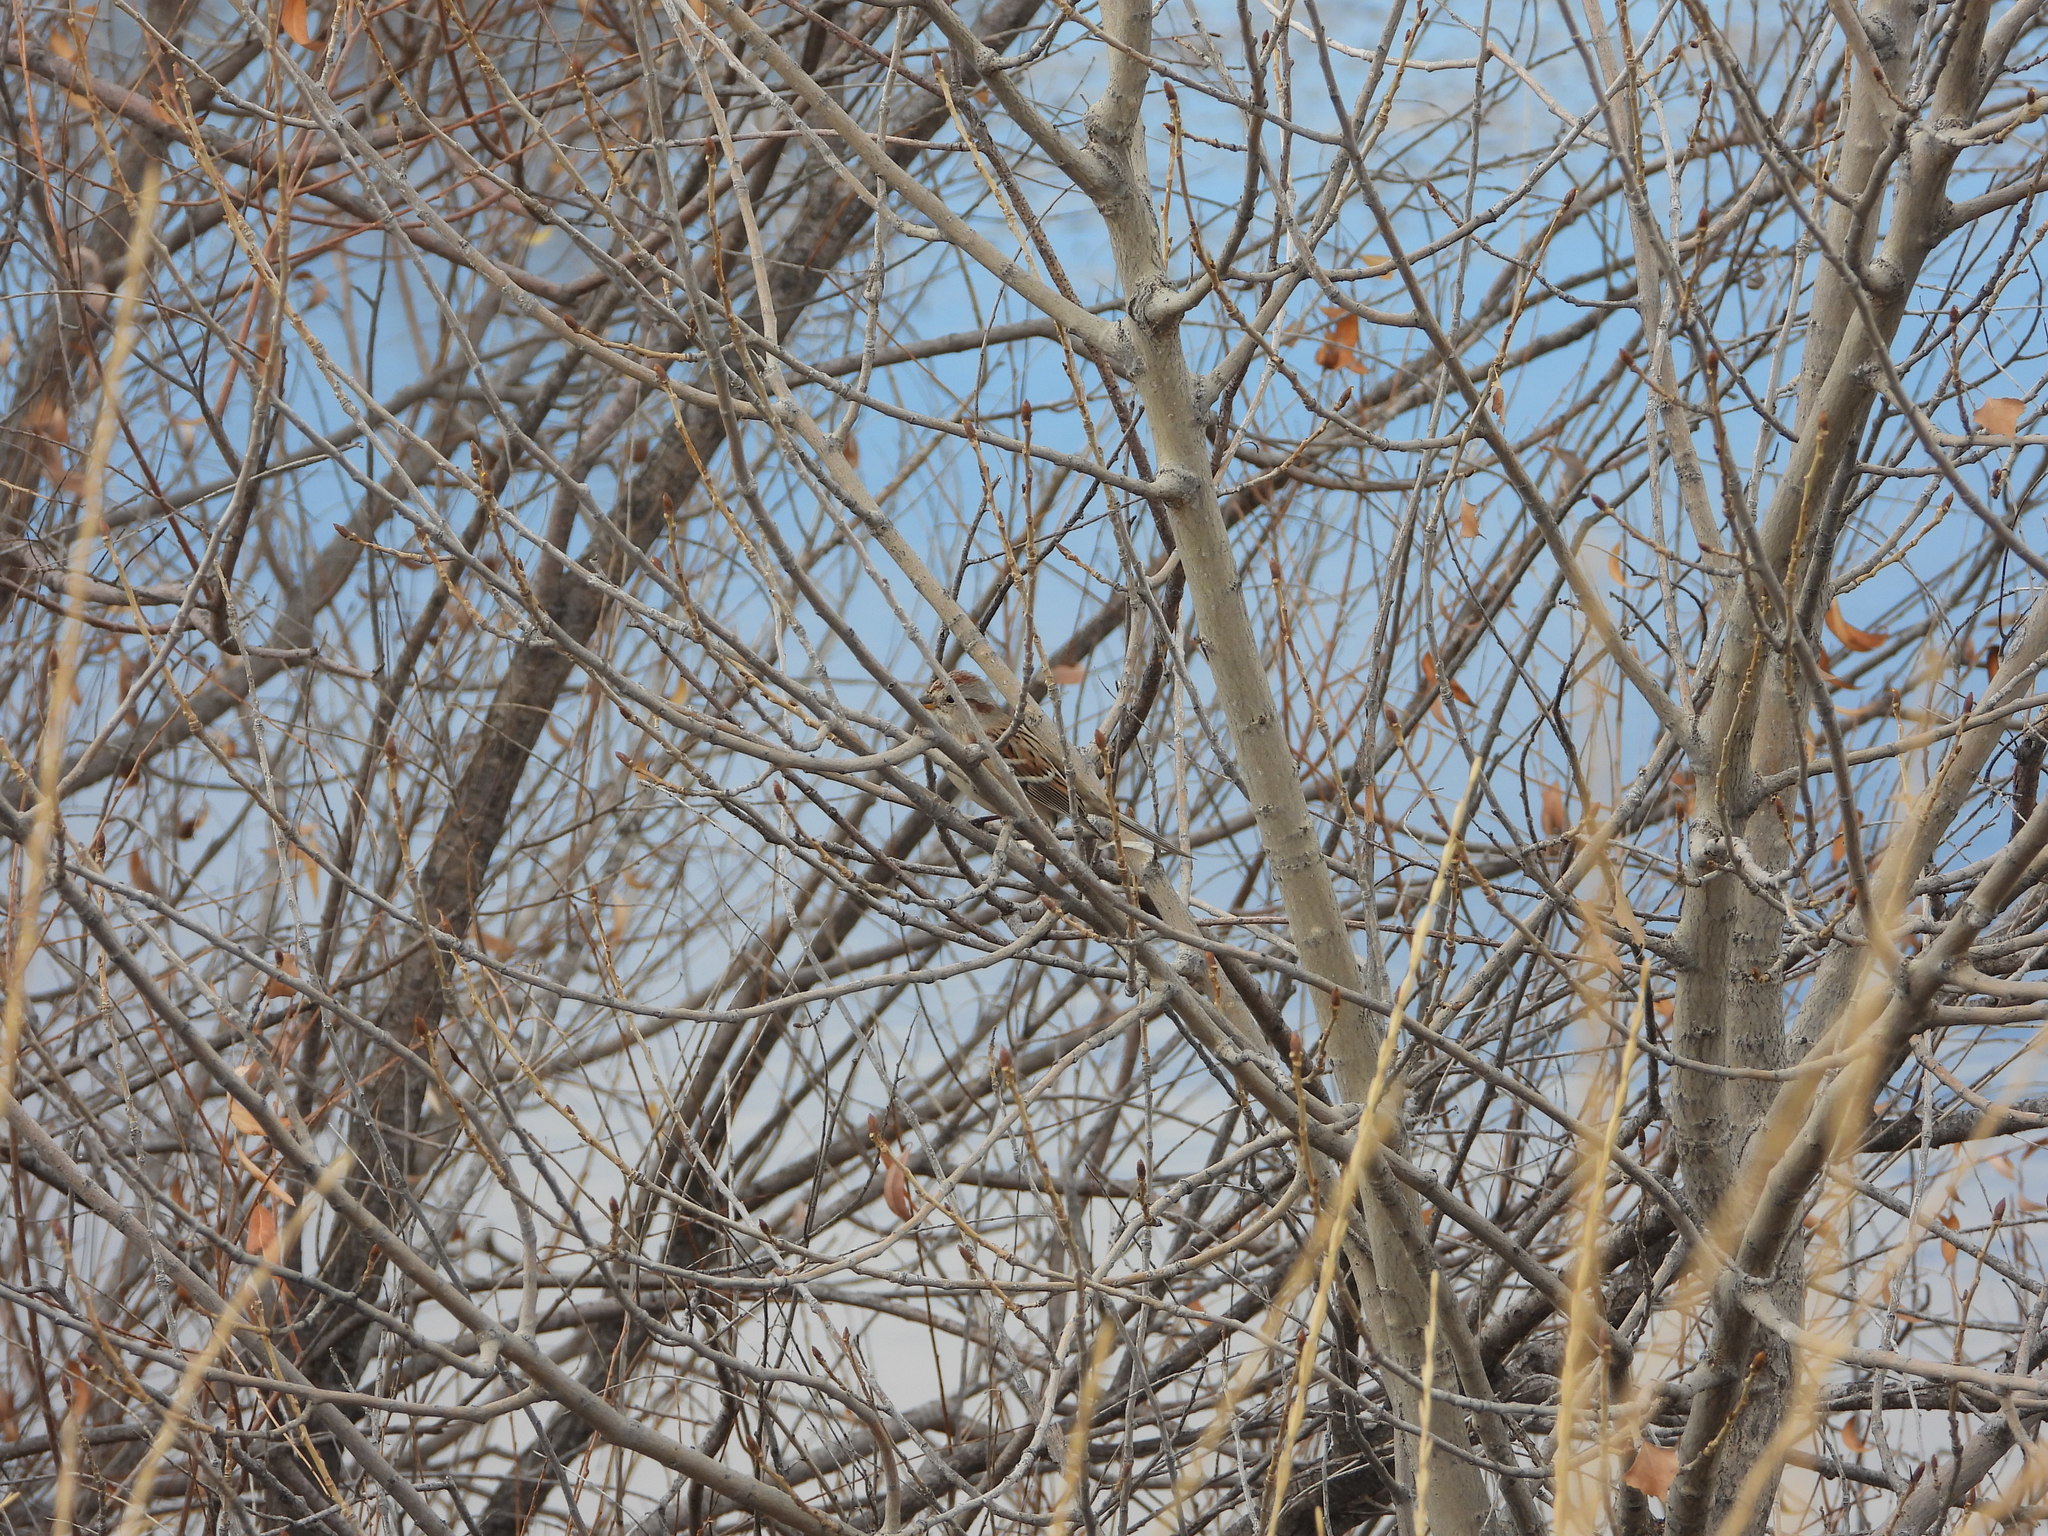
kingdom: Animalia
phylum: Chordata
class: Aves
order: Passeriformes
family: Passerellidae
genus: Spizelloides
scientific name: Spizelloides arborea
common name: American tree sparrow
